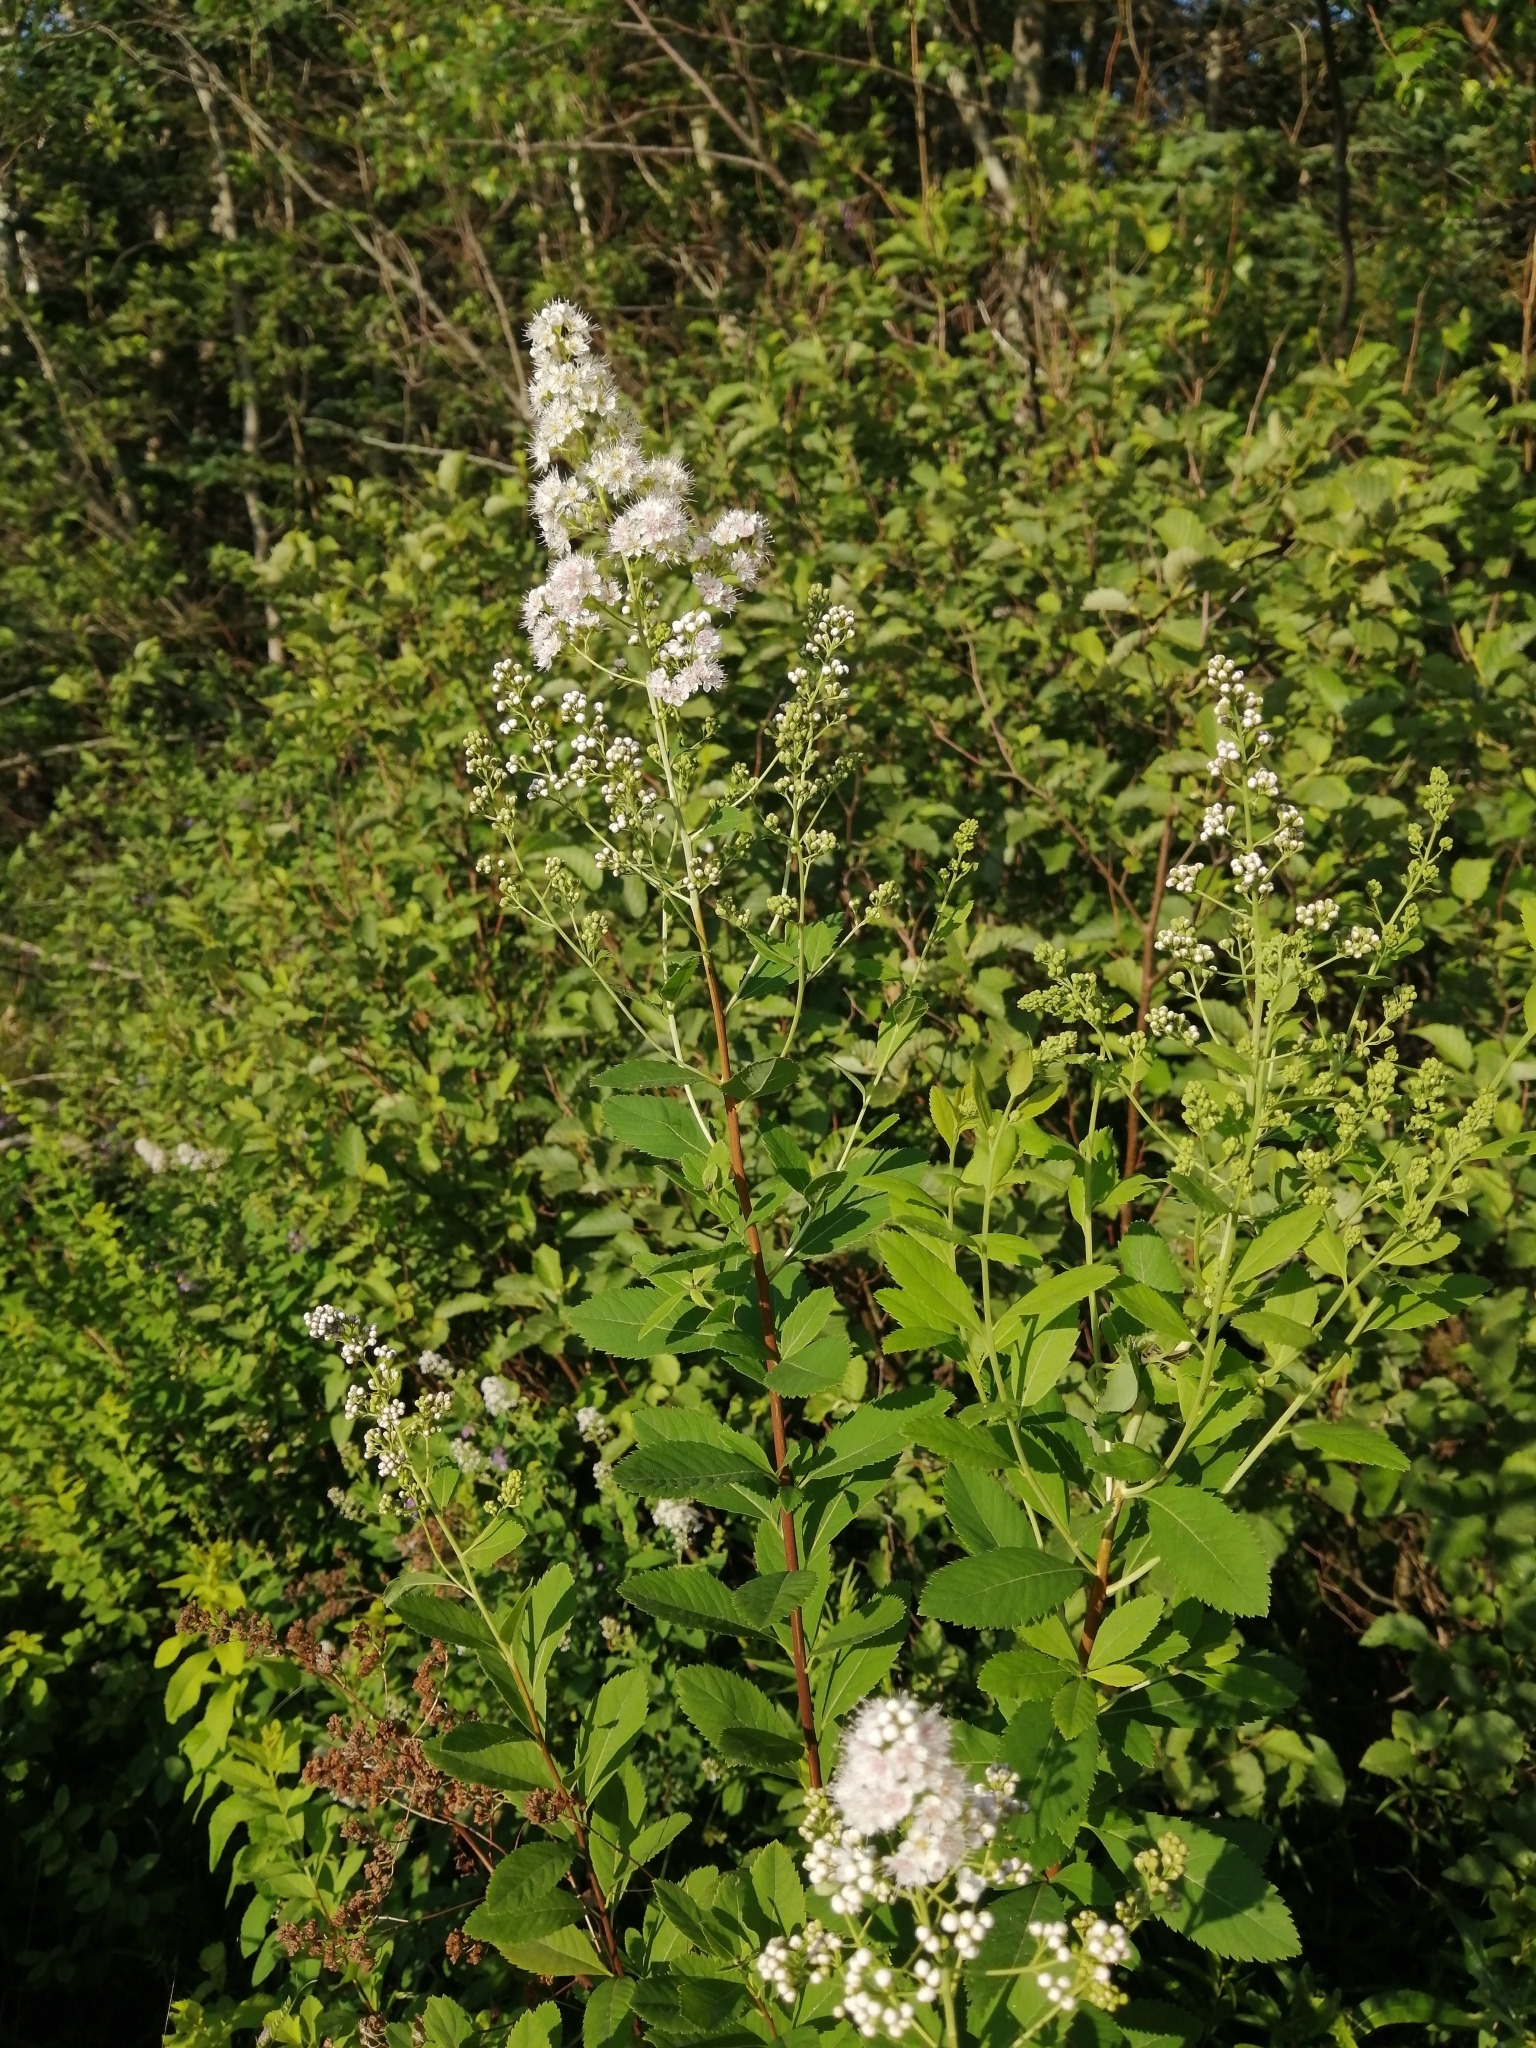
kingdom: Plantae
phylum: Tracheophyta
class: Magnoliopsida
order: Rosales
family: Rosaceae
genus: Spiraea
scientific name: Spiraea alba
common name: Pale bridewort
